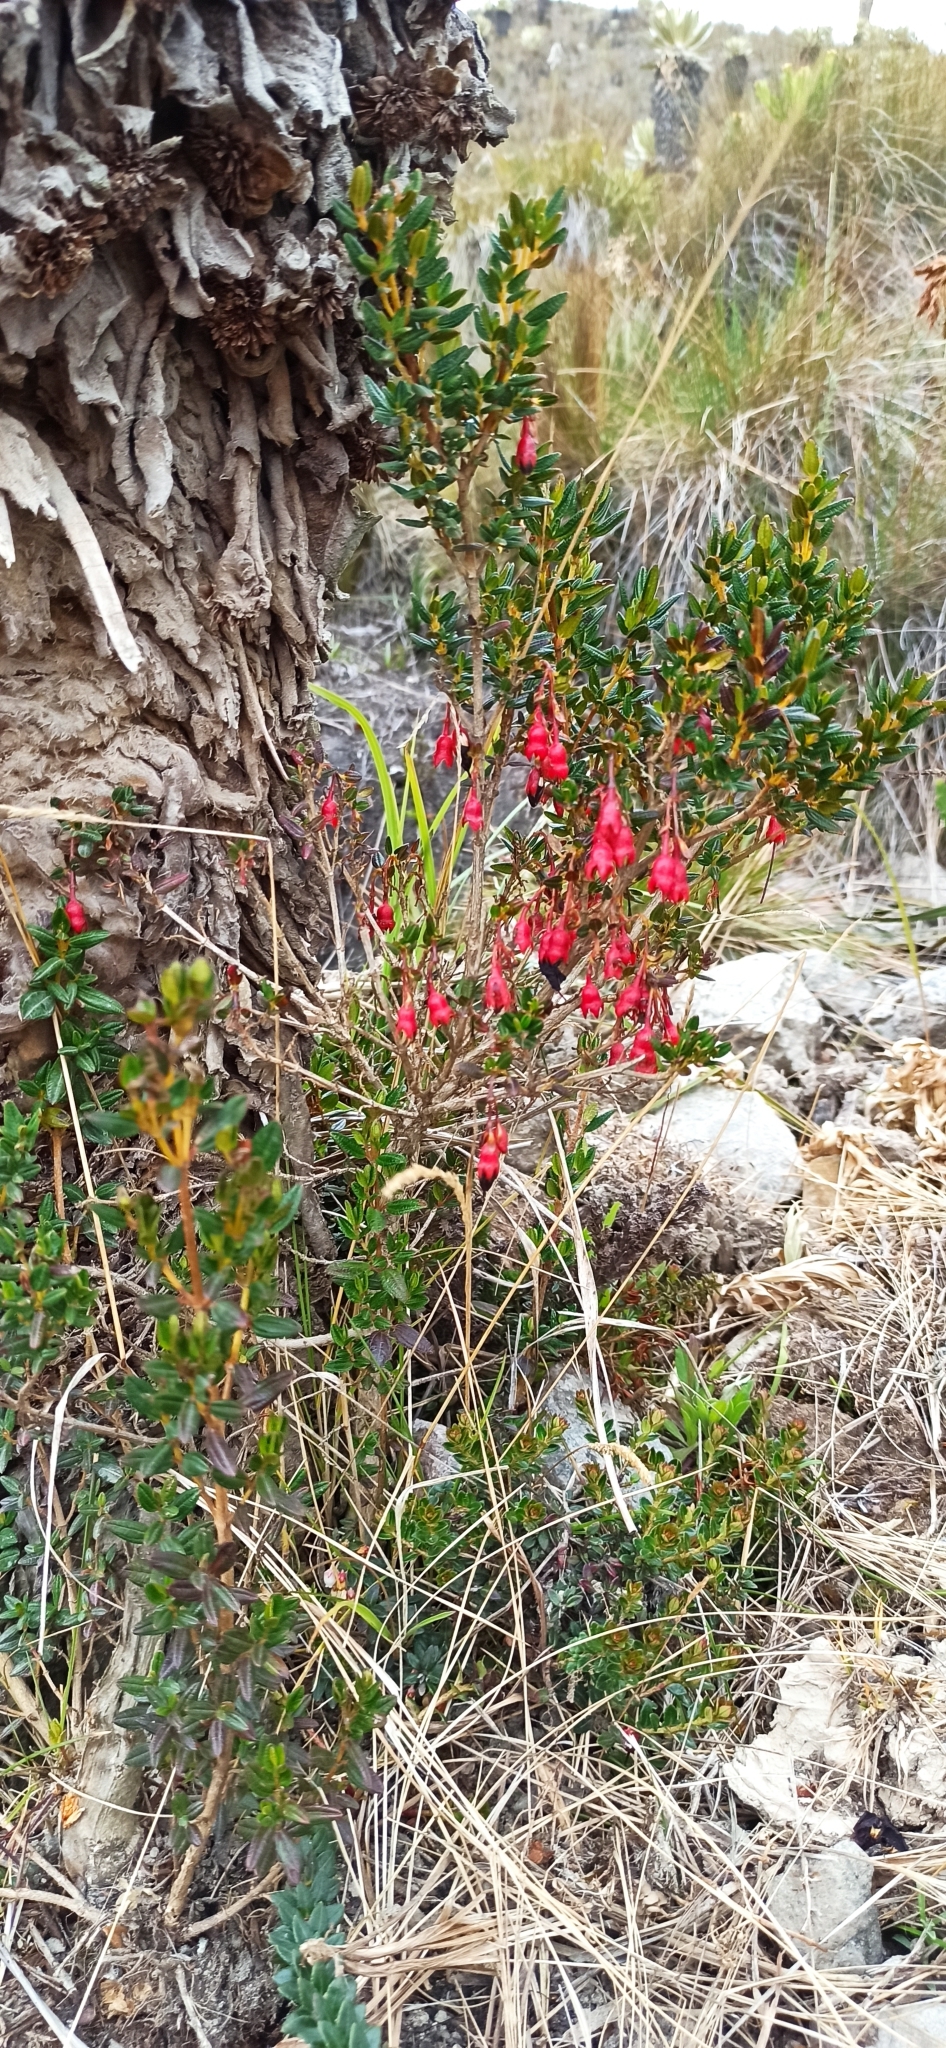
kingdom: Plantae
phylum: Tracheophyta
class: Magnoliopsida
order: Myrtales
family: Melastomataceae
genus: Brachyotum
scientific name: Brachyotum jamesonii
